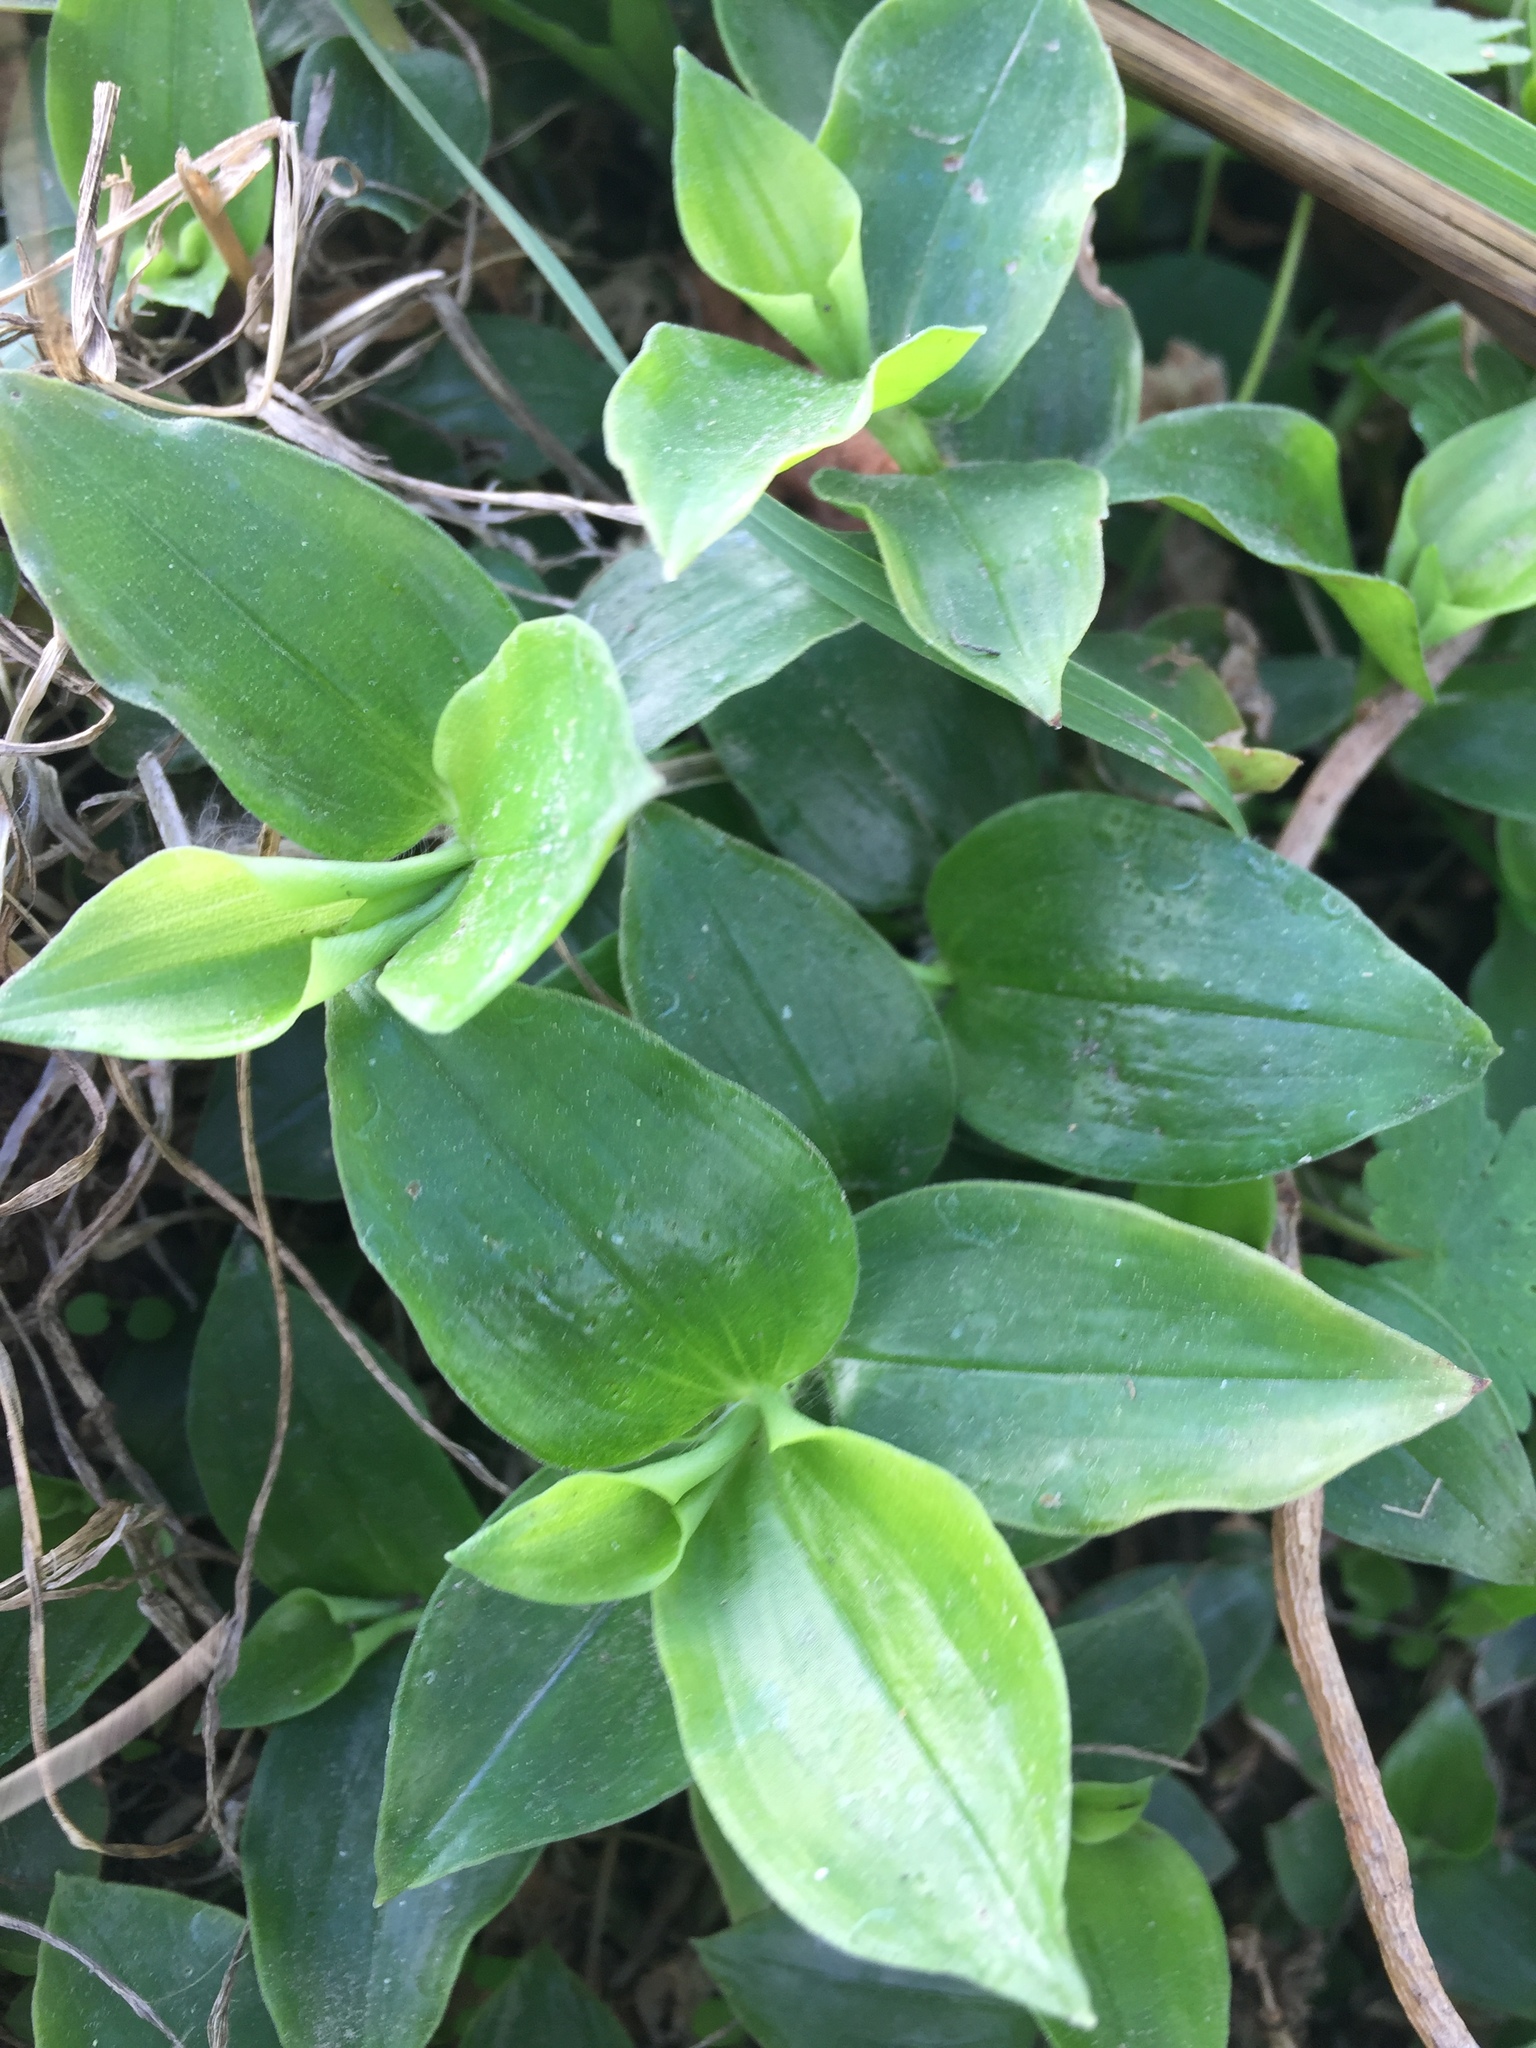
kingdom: Plantae
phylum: Tracheophyta
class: Liliopsida
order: Commelinales
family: Commelinaceae
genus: Tradescantia
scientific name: Tradescantia fluminensis
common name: Wandering-jew
